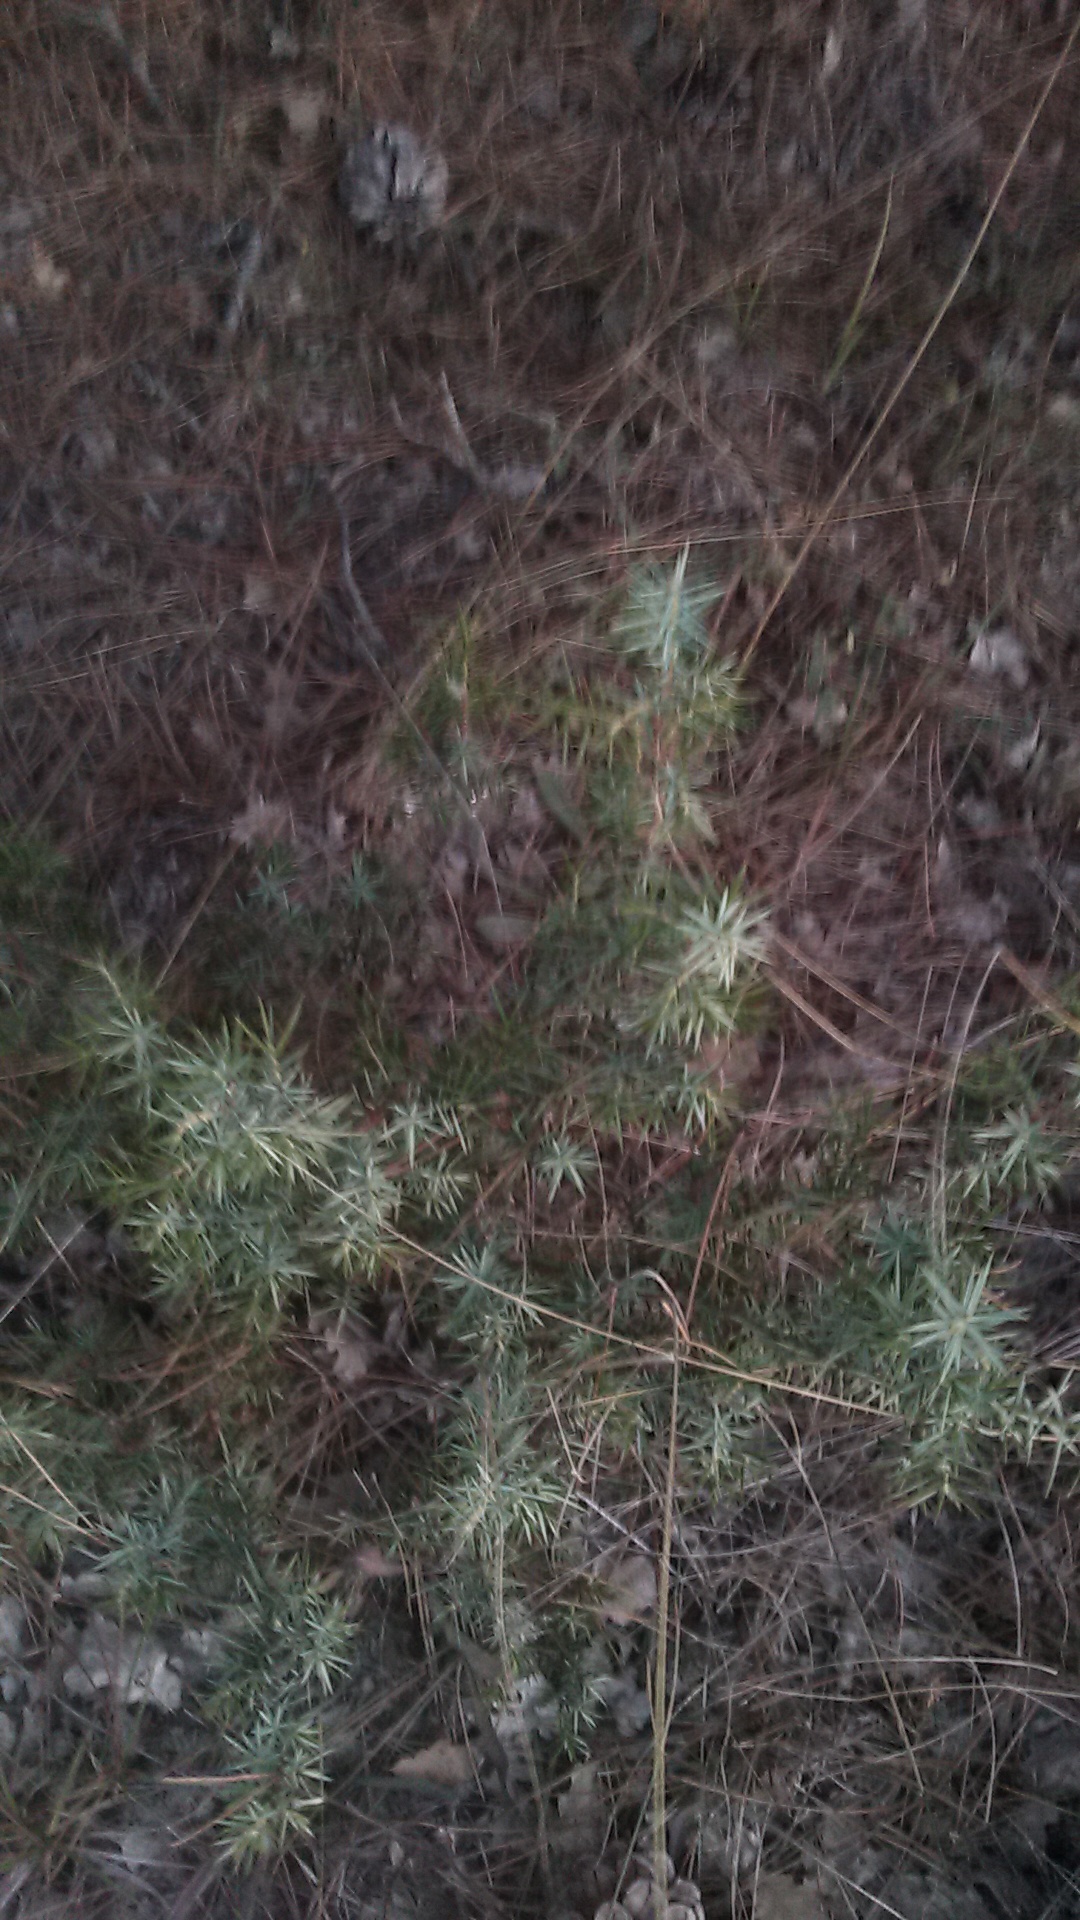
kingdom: Plantae
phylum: Tracheophyta
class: Pinopsida
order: Pinales
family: Cupressaceae
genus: Juniperus
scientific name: Juniperus oxycedrus
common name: Prickly juniper
